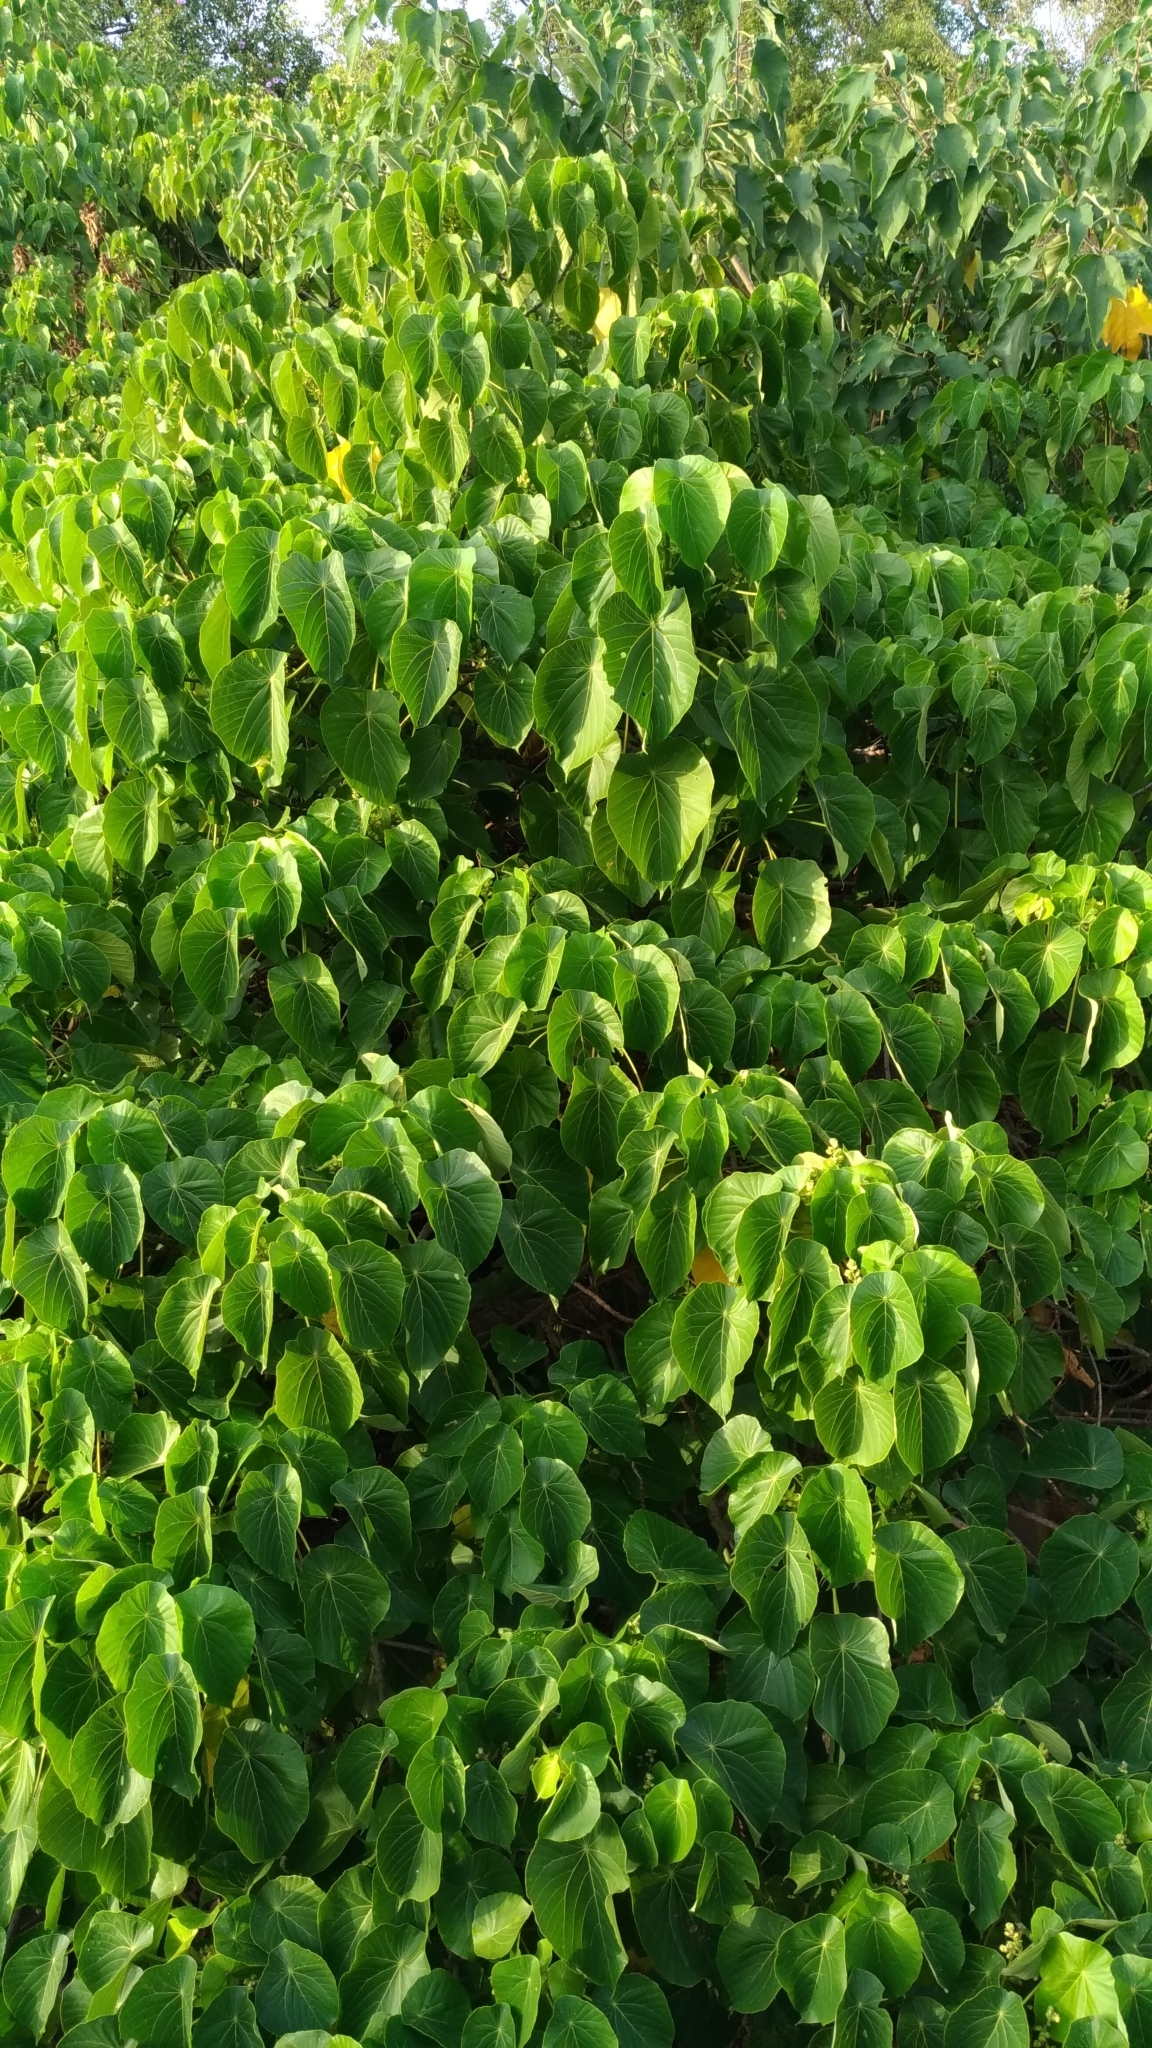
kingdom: Plantae
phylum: Tracheophyta
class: Magnoliopsida
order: Malpighiales
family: Euphorbiaceae
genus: Macaranga
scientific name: Macaranga tanarius
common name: Parasol leaf tree
